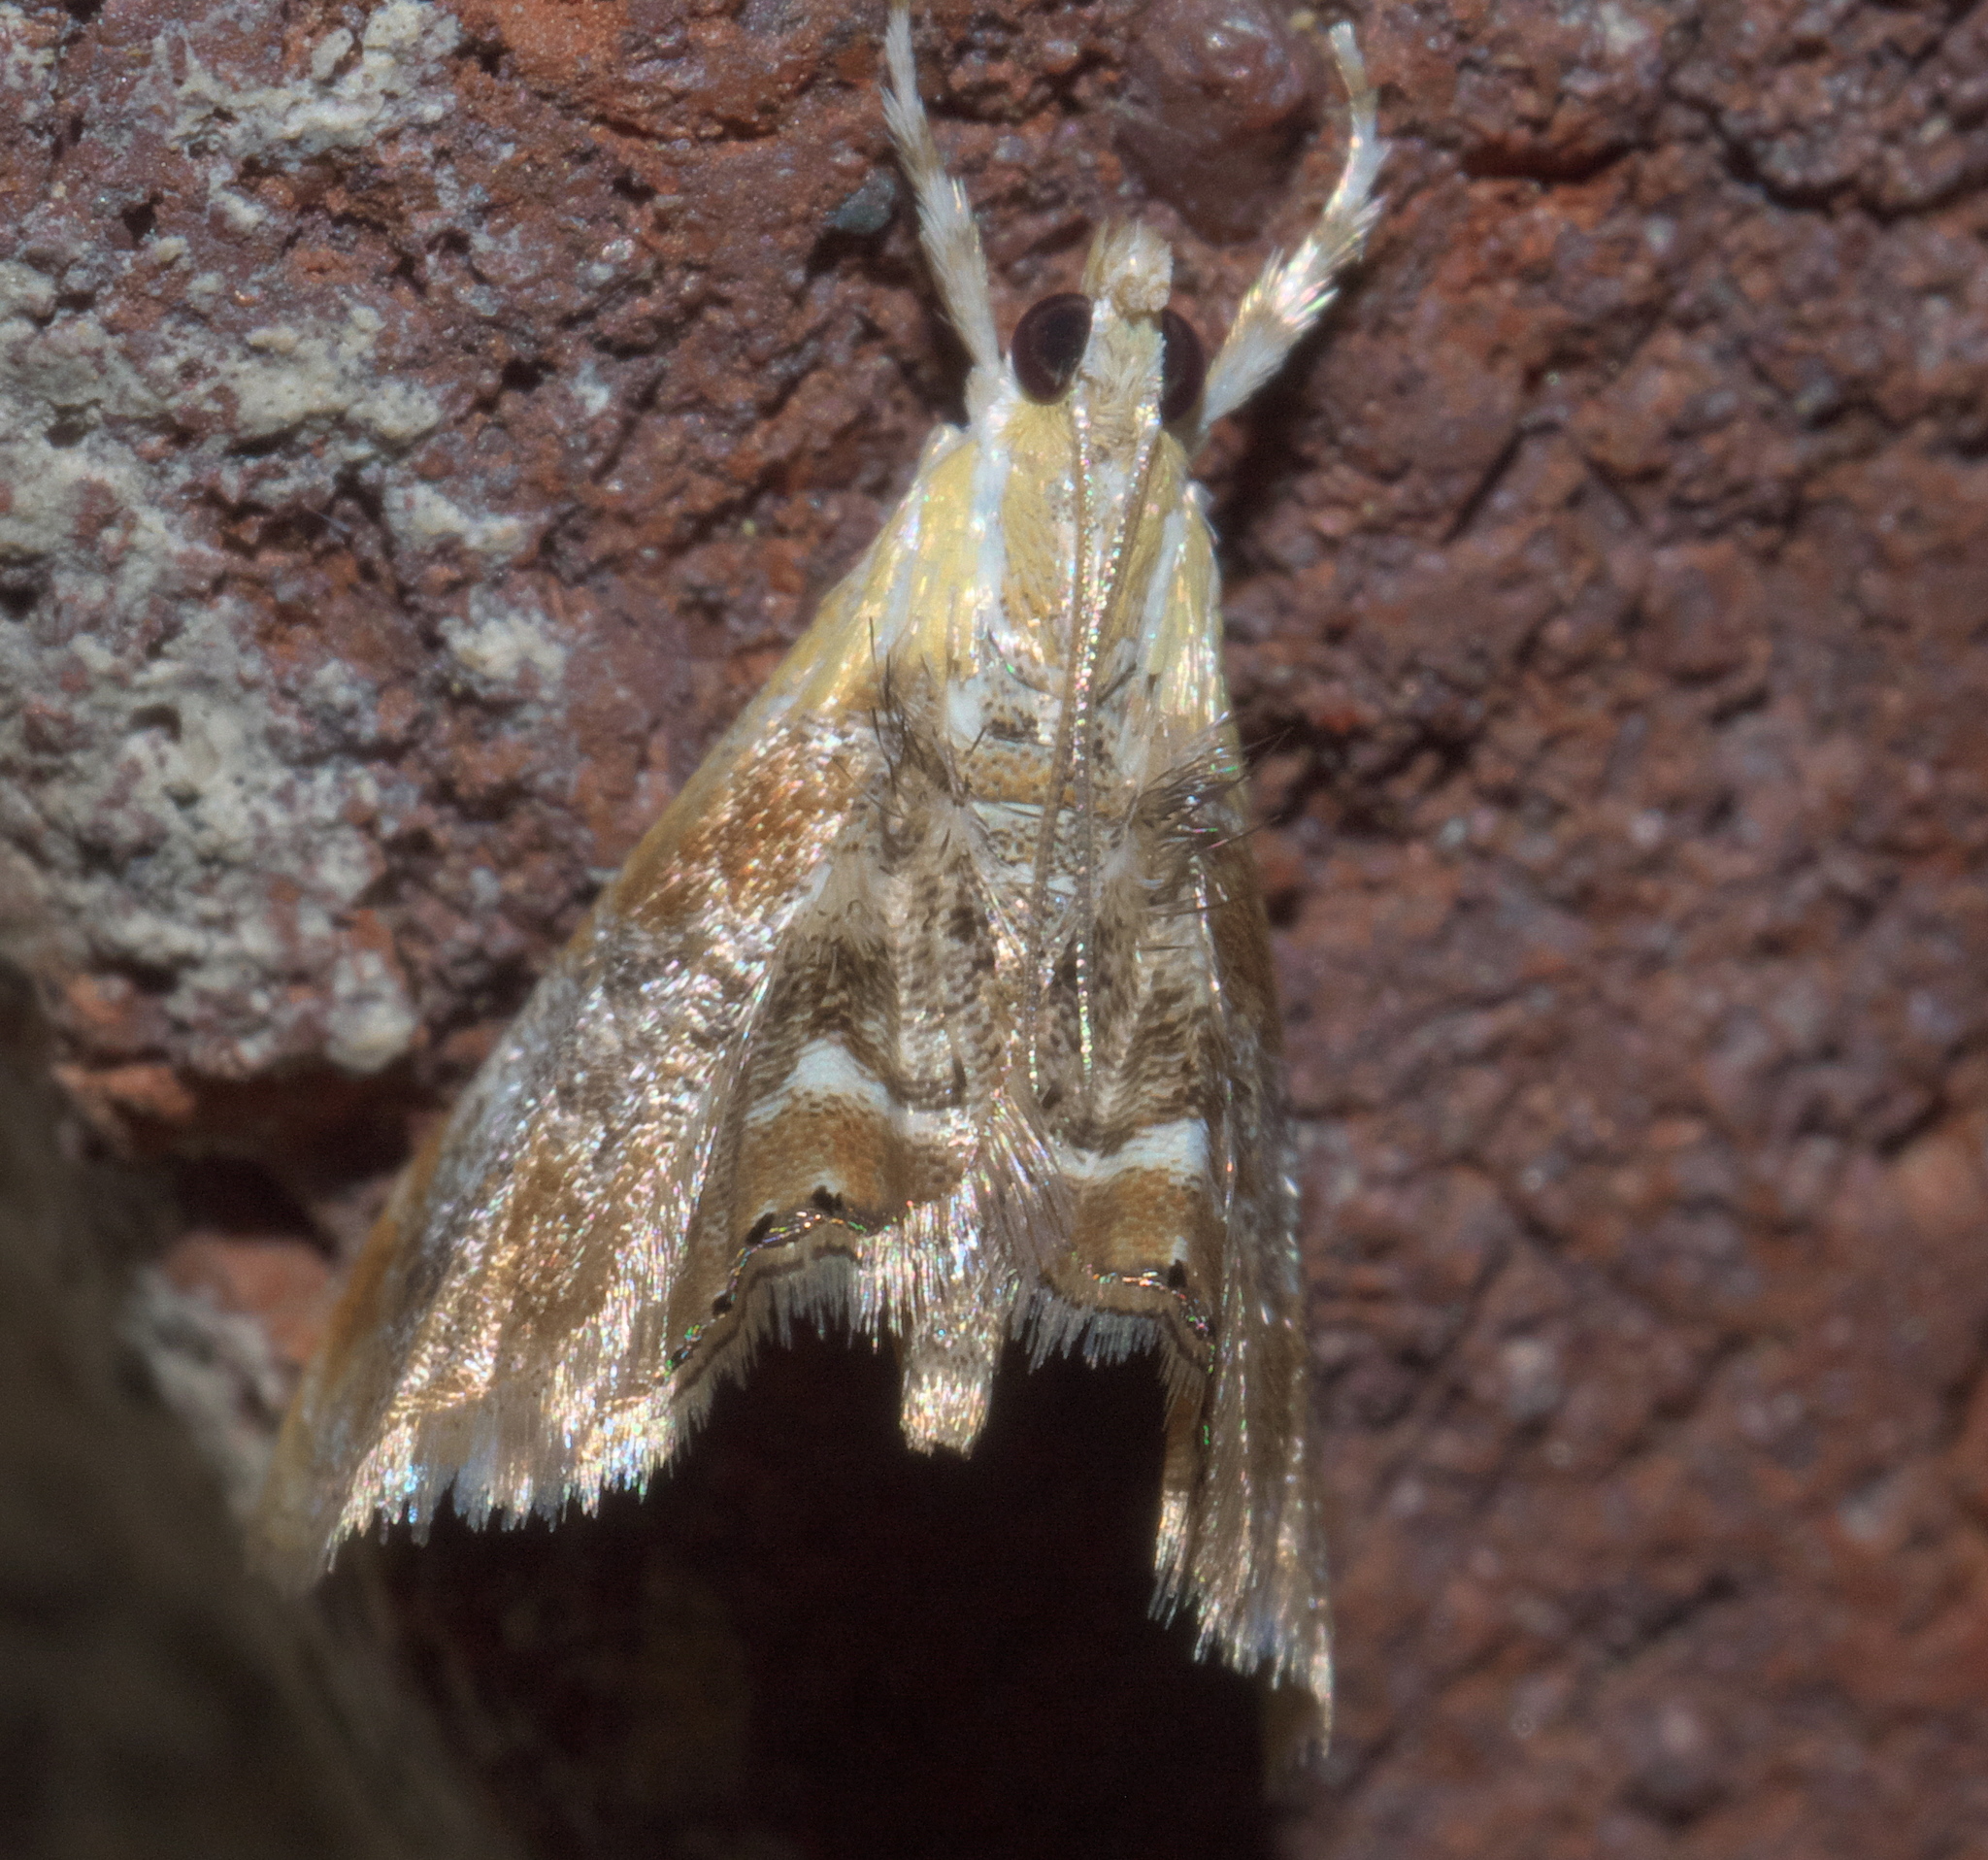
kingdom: Animalia
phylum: Arthropoda
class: Insecta
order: Lepidoptera
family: Crambidae
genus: Dicymolomia
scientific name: Dicymolomia julianalis
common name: Julia's dicymolomia moth
